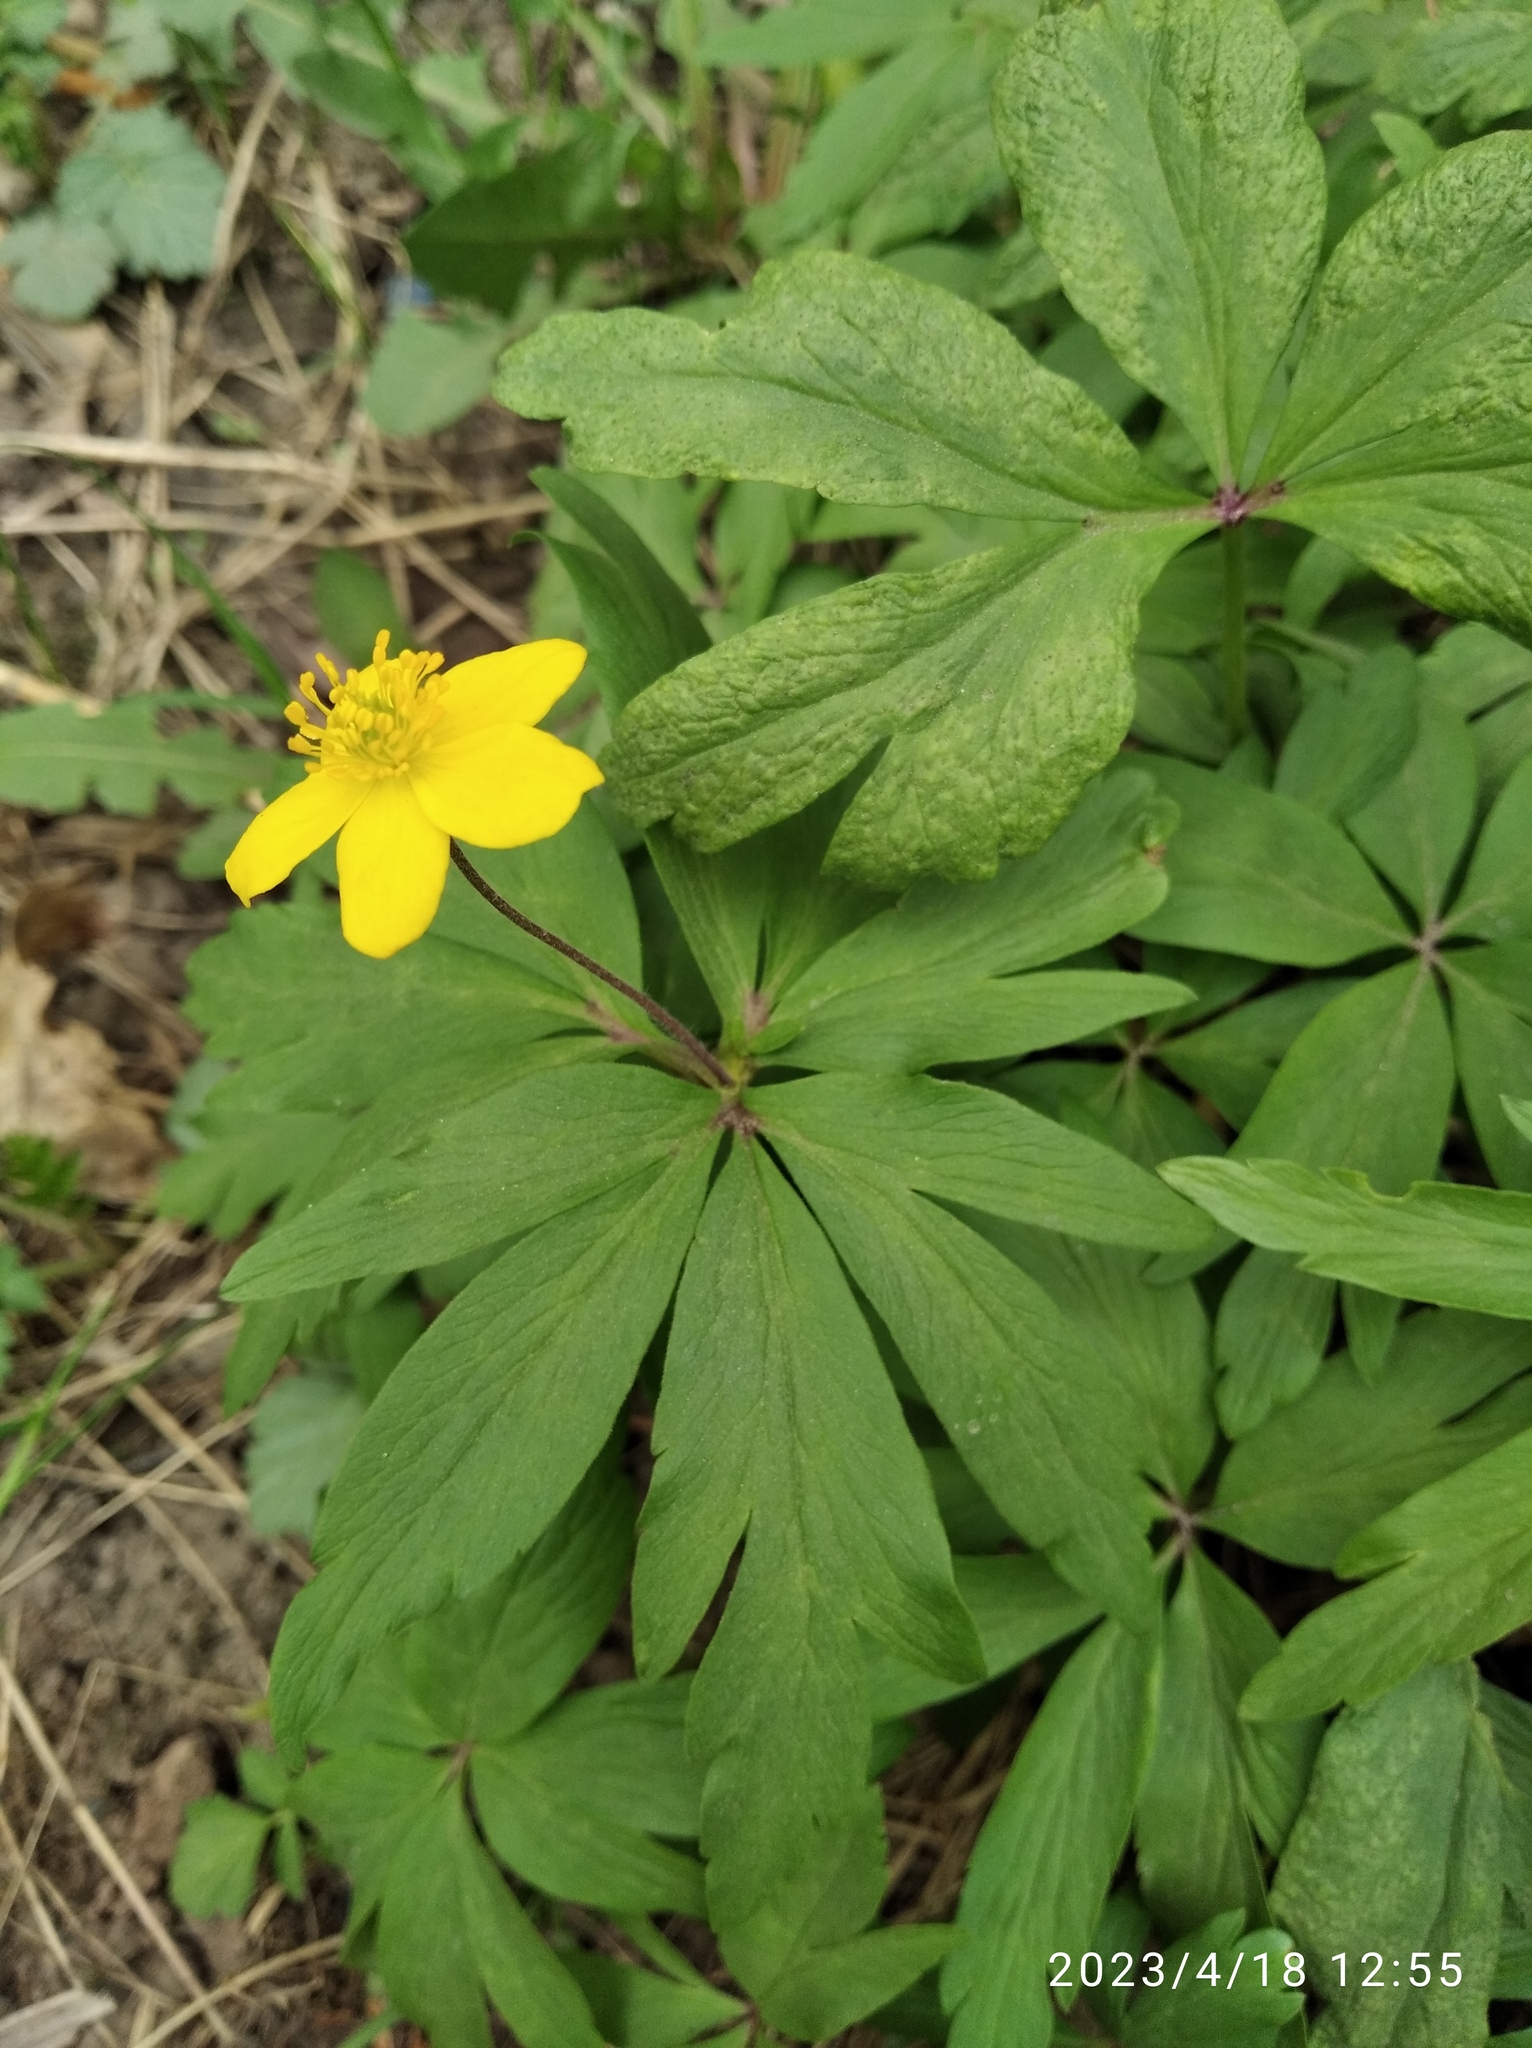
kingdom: Plantae
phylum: Tracheophyta
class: Magnoliopsida
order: Ranunculales
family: Ranunculaceae
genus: Anemone
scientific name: Anemone ranunculoides
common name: Yellow anemone
